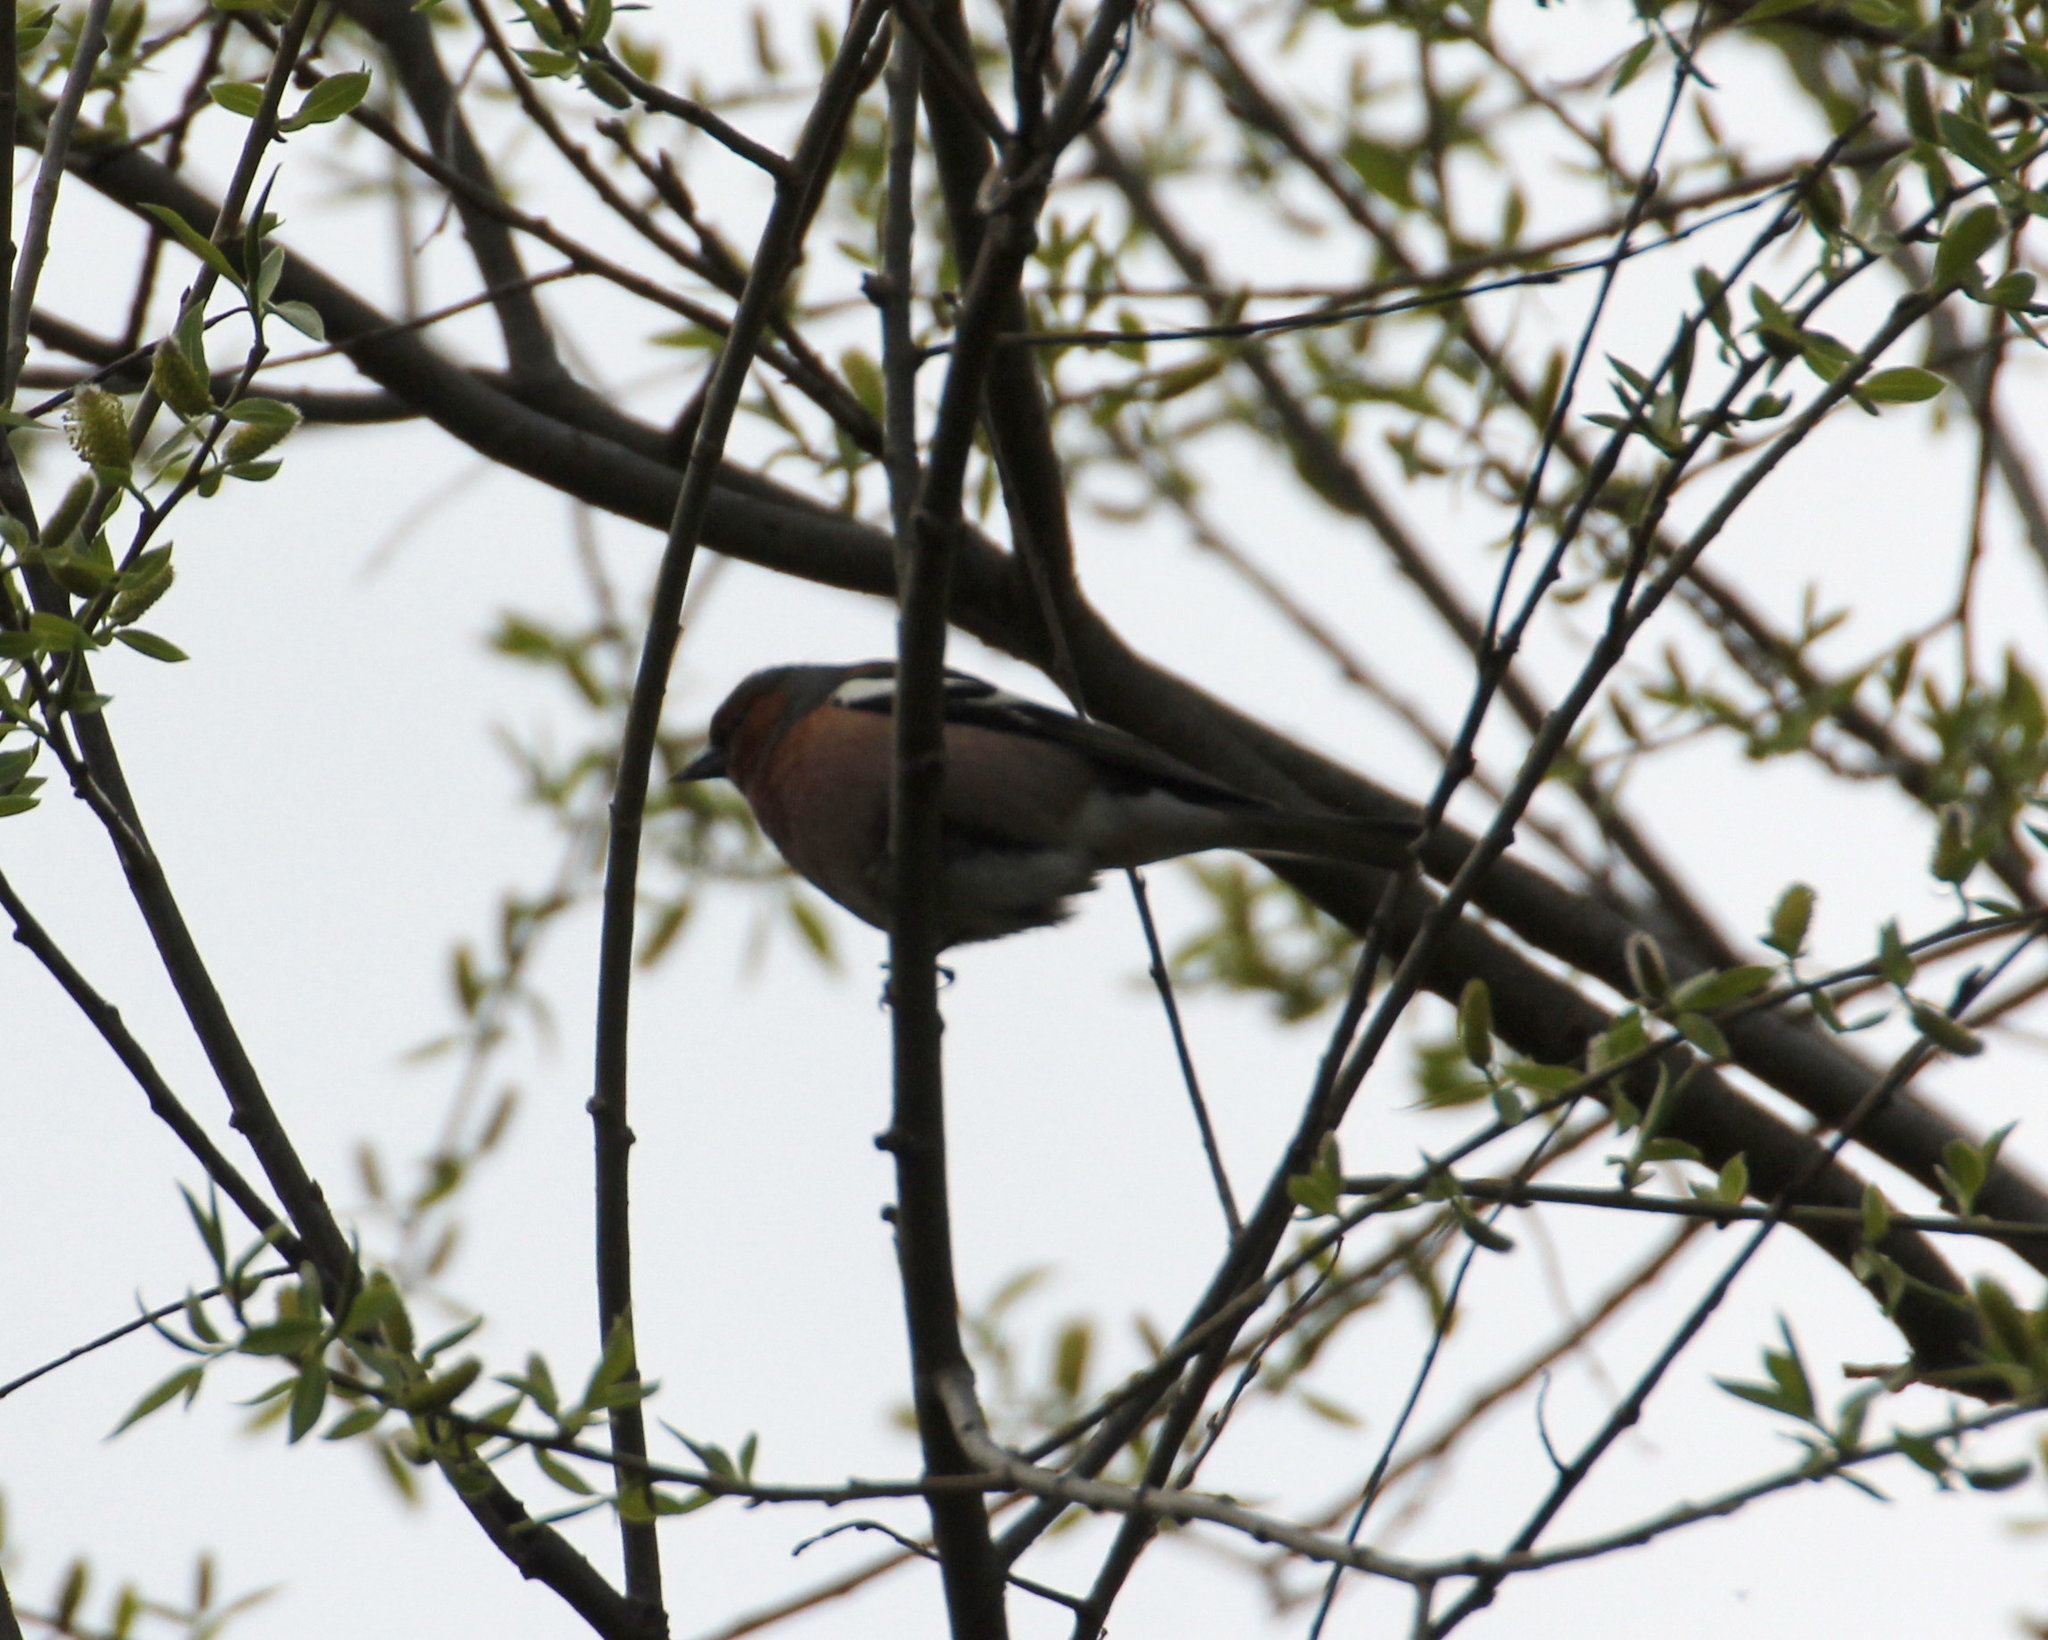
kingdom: Animalia
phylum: Chordata
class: Aves
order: Passeriformes
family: Fringillidae
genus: Fringilla
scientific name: Fringilla coelebs
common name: Common chaffinch
